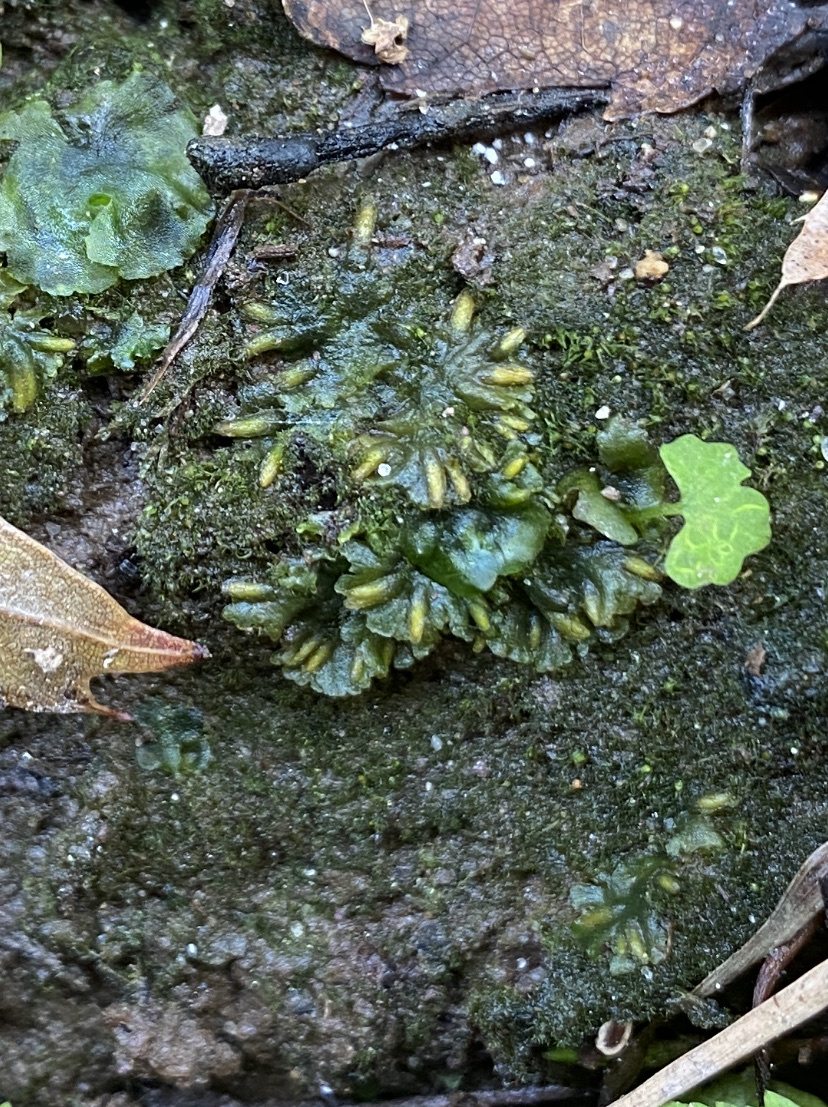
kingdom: Plantae
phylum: Anthocerotophyta
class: Anthocerotopsida
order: Notothyladales
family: Notothyladaceae
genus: Notothylas
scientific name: Notothylas orbicularis
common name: Short-horned liverwort
